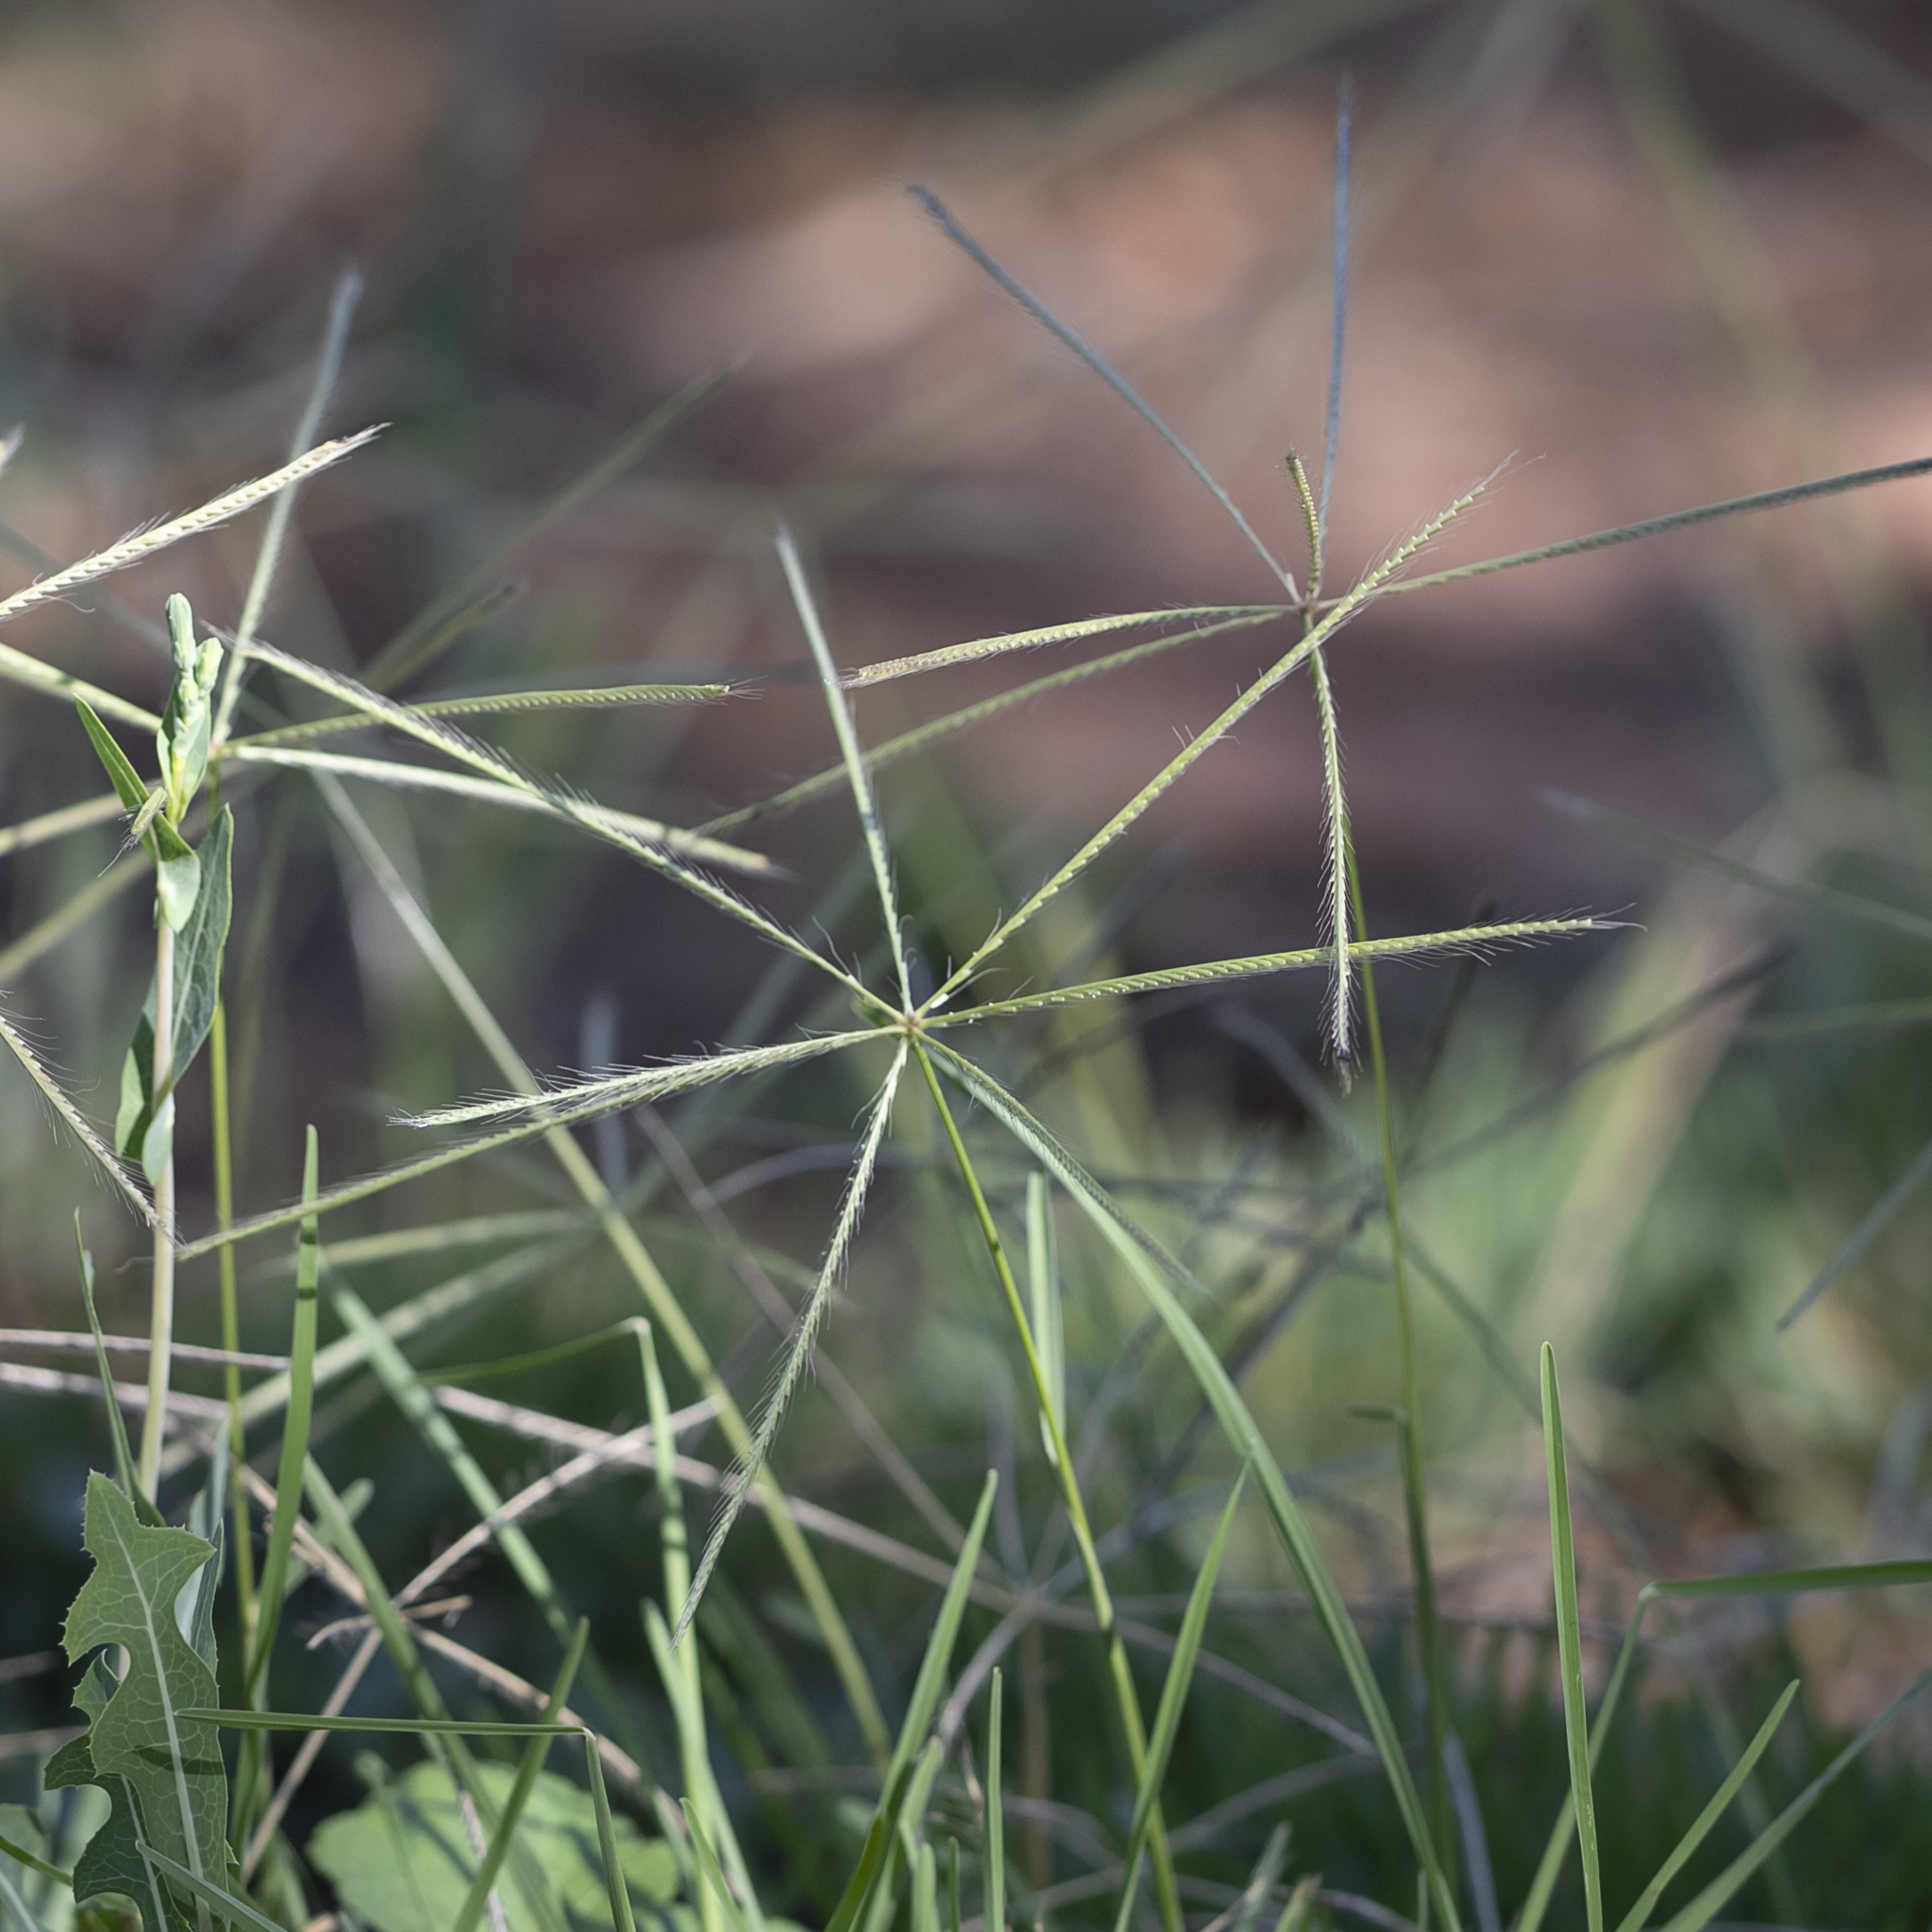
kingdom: Plantae
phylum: Tracheophyta
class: Liliopsida
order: Poales
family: Poaceae
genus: Chloris
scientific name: Chloris truncata
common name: Windmill-grass
